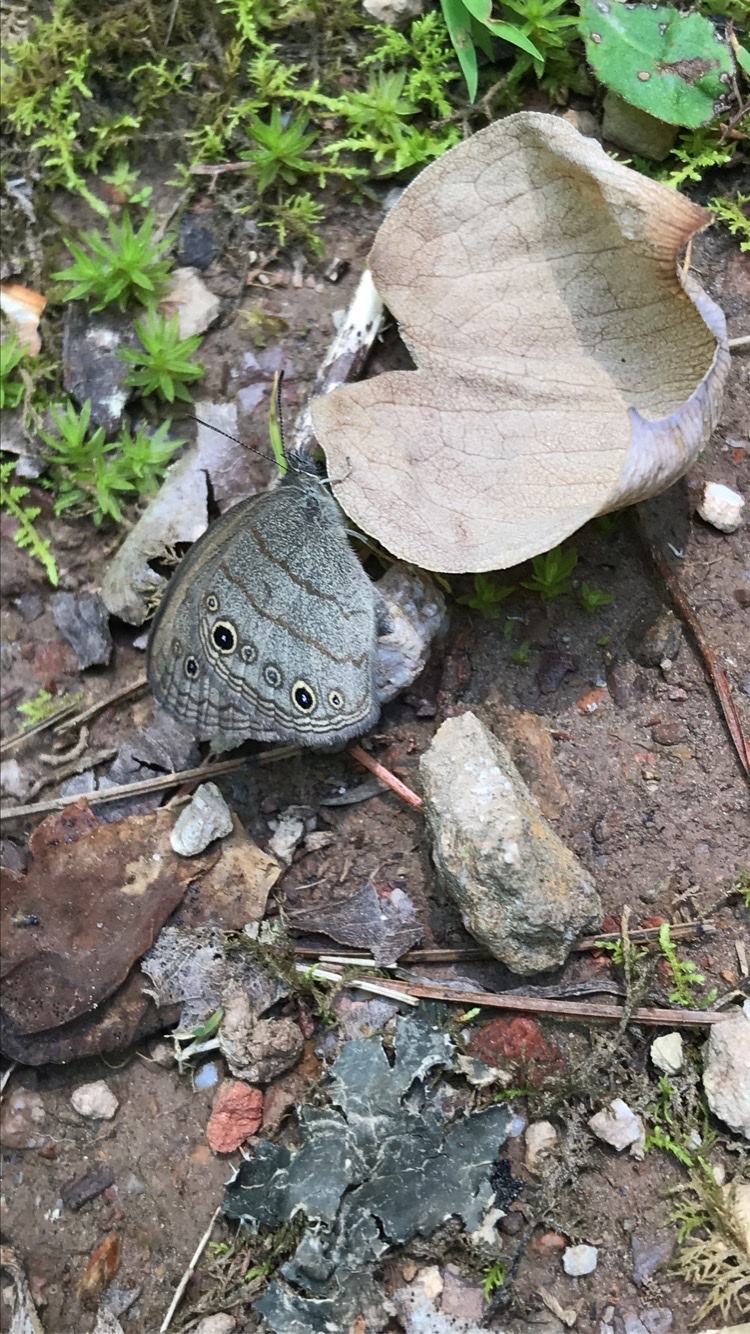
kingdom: Animalia
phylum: Arthropoda
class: Insecta
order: Lepidoptera
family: Nymphalidae
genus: Hermeuptychia
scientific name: Hermeuptychia hermes
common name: Hermes satyr
